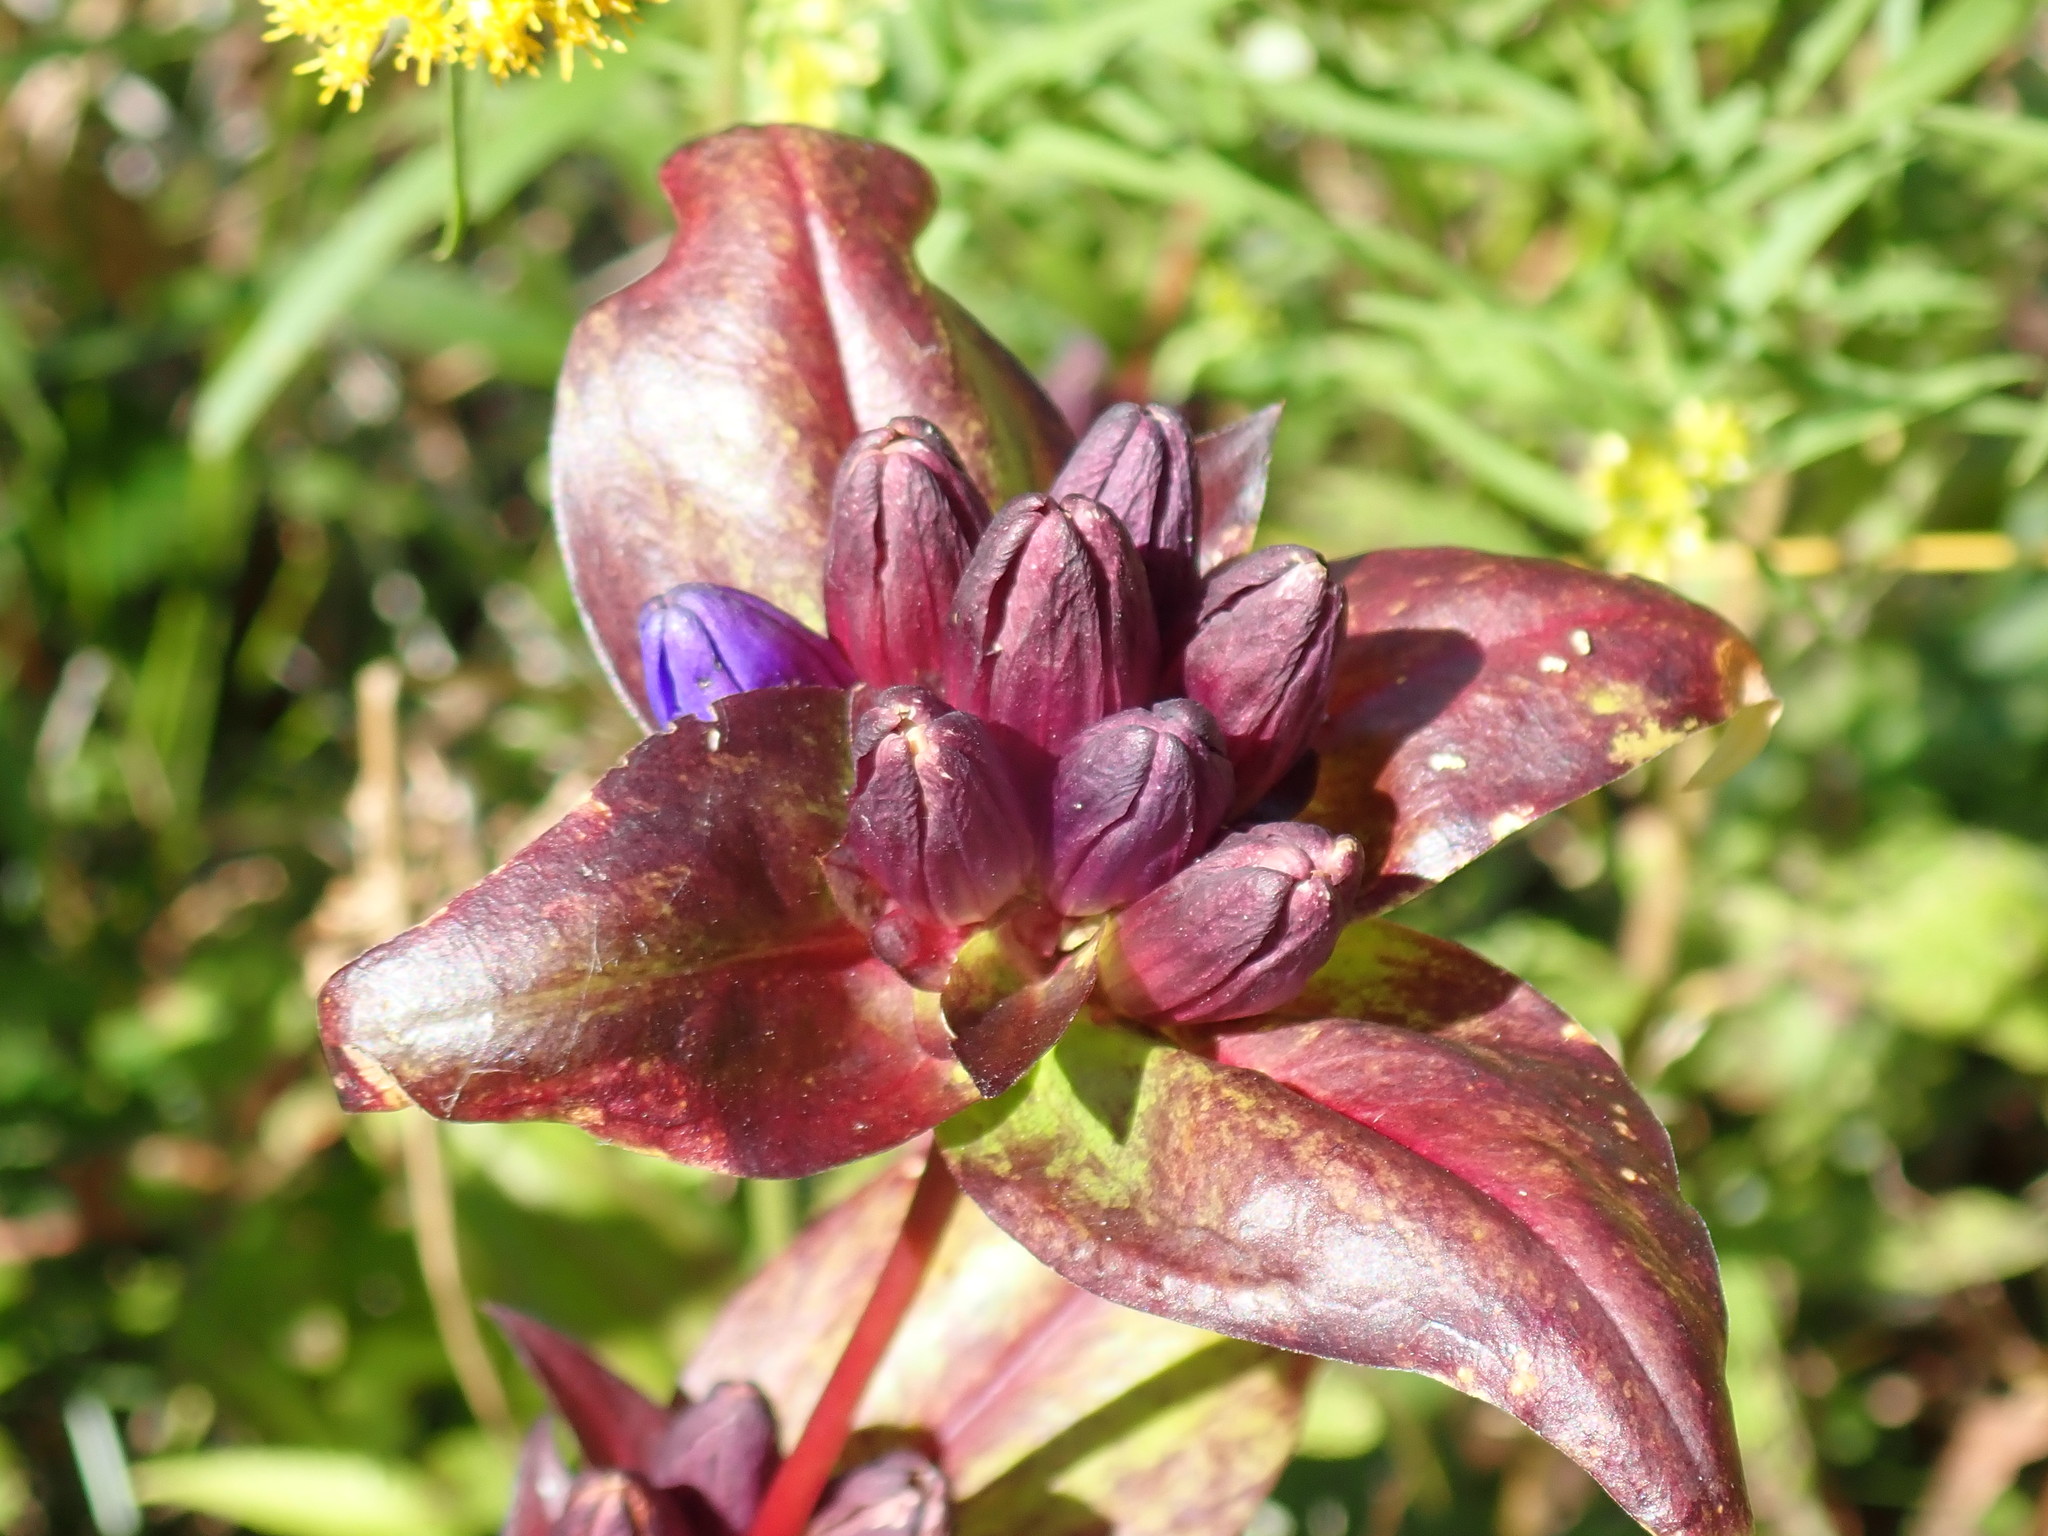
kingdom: Plantae
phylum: Tracheophyta
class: Magnoliopsida
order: Gentianales
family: Gentianaceae
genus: Gentiana
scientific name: Gentiana clausa
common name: Blind gentian
